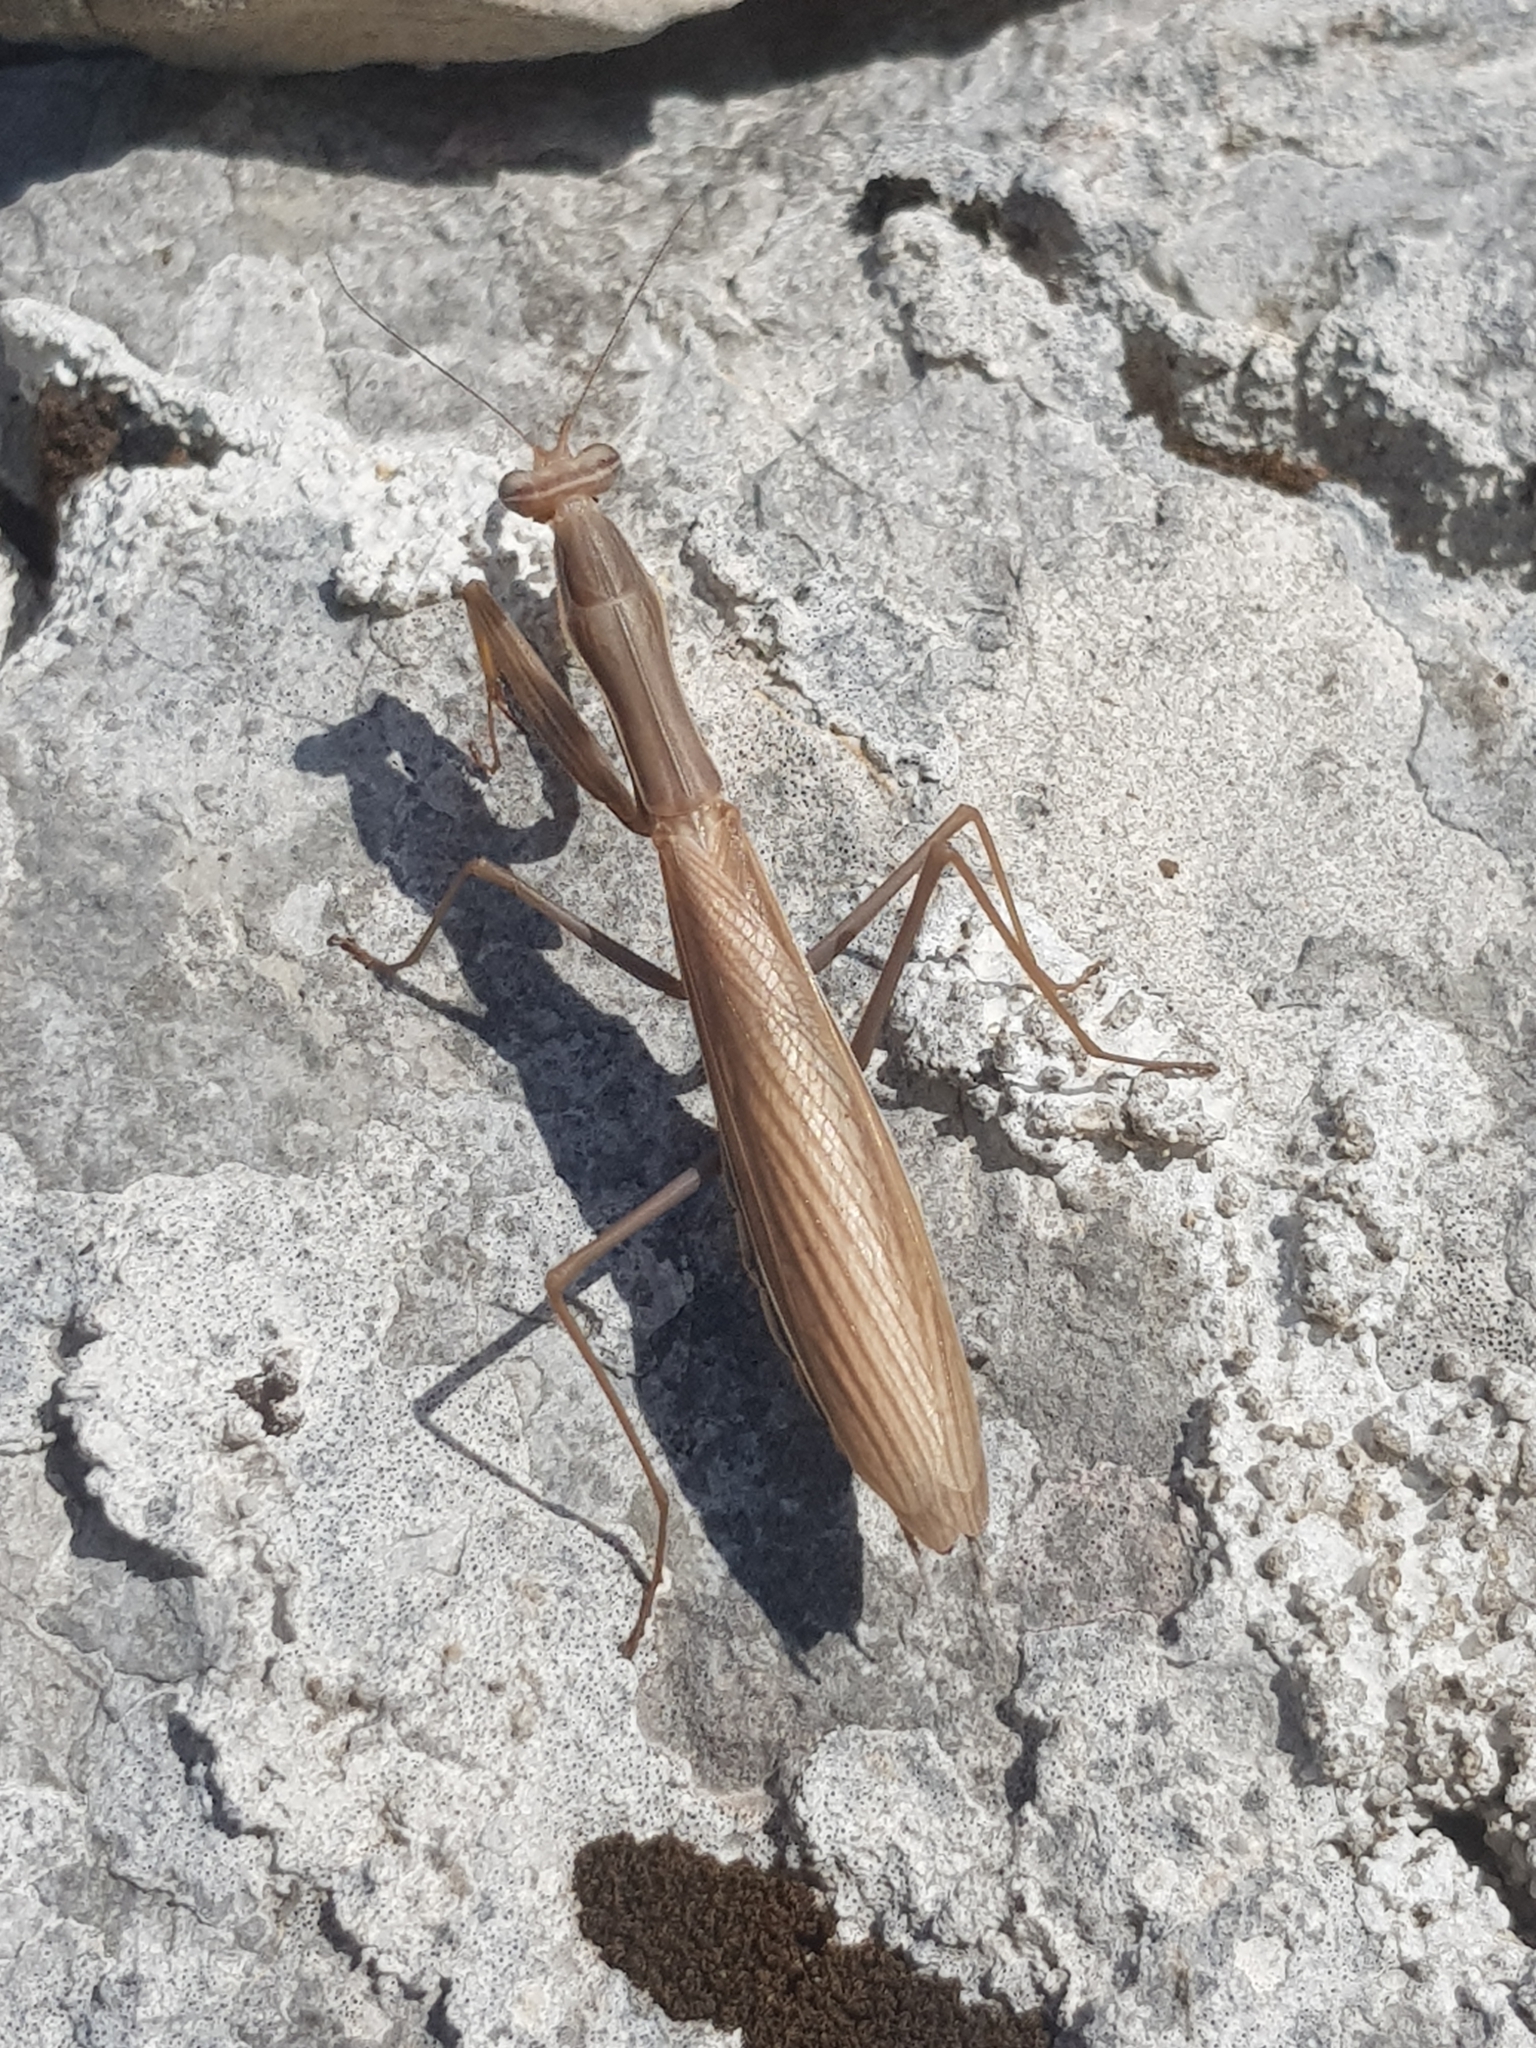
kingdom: Animalia
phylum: Arthropoda
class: Insecta
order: Mantodea
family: Mantidae
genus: Mantis
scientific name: Mantis religiosa
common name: Praying mantis
